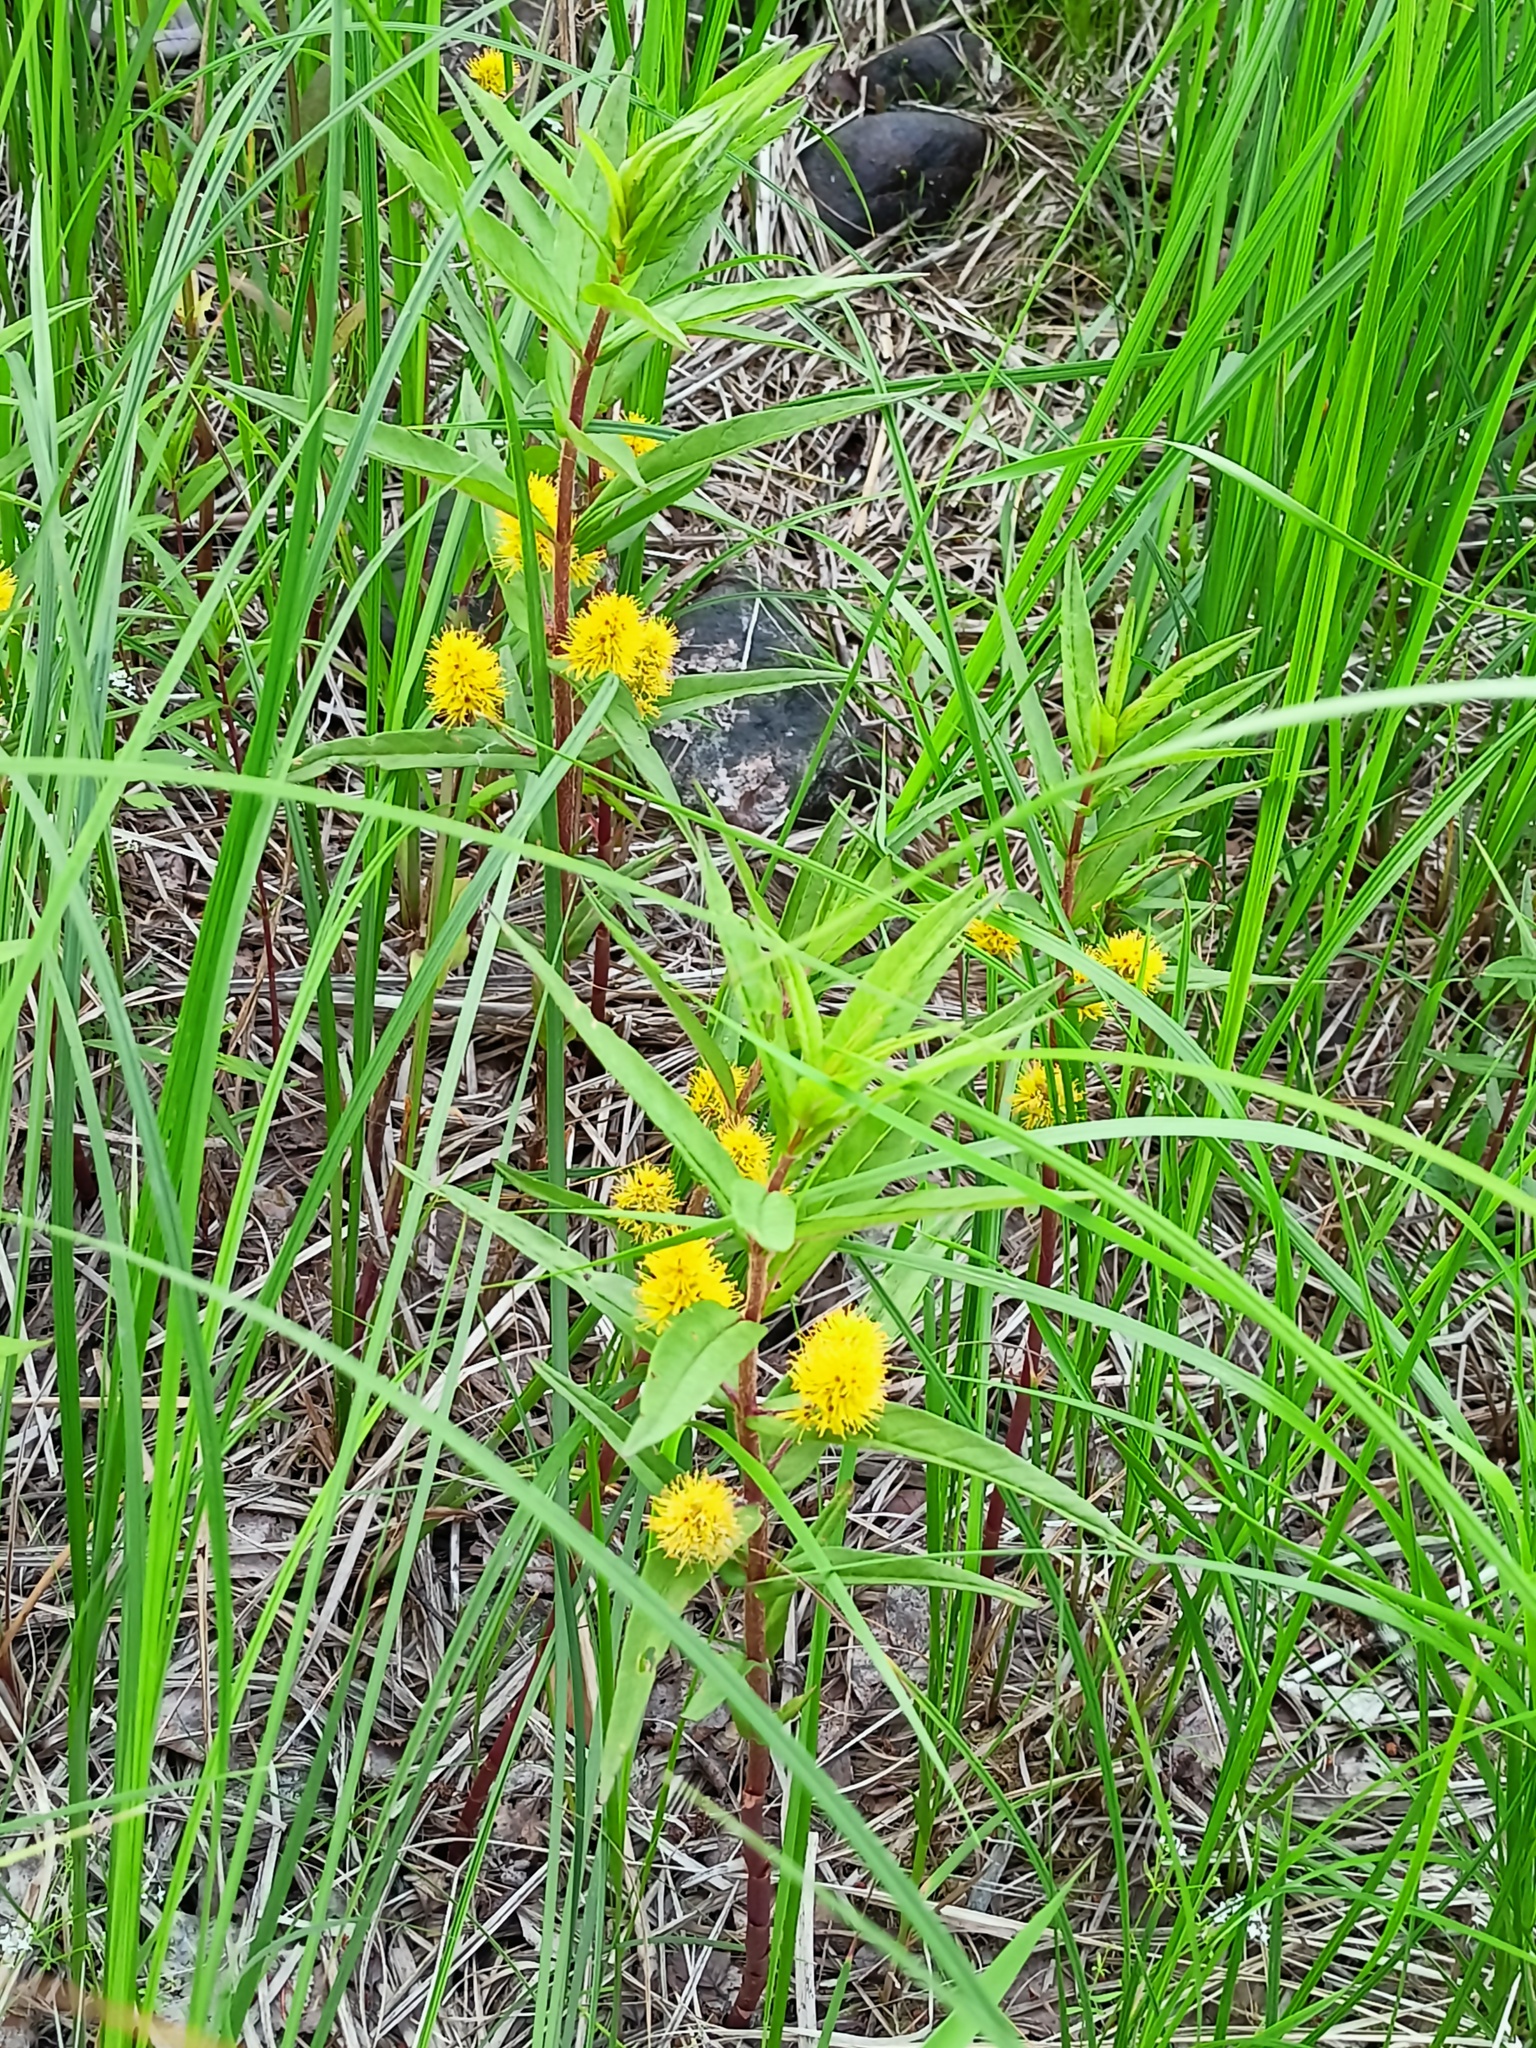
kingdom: Plantae
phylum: Tracheophyta
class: Magnoliopsida
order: Ericales
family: Primulaceae
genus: Lysimachia
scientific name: Lysimachia thyrsiflora
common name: Tufted loosestrife
